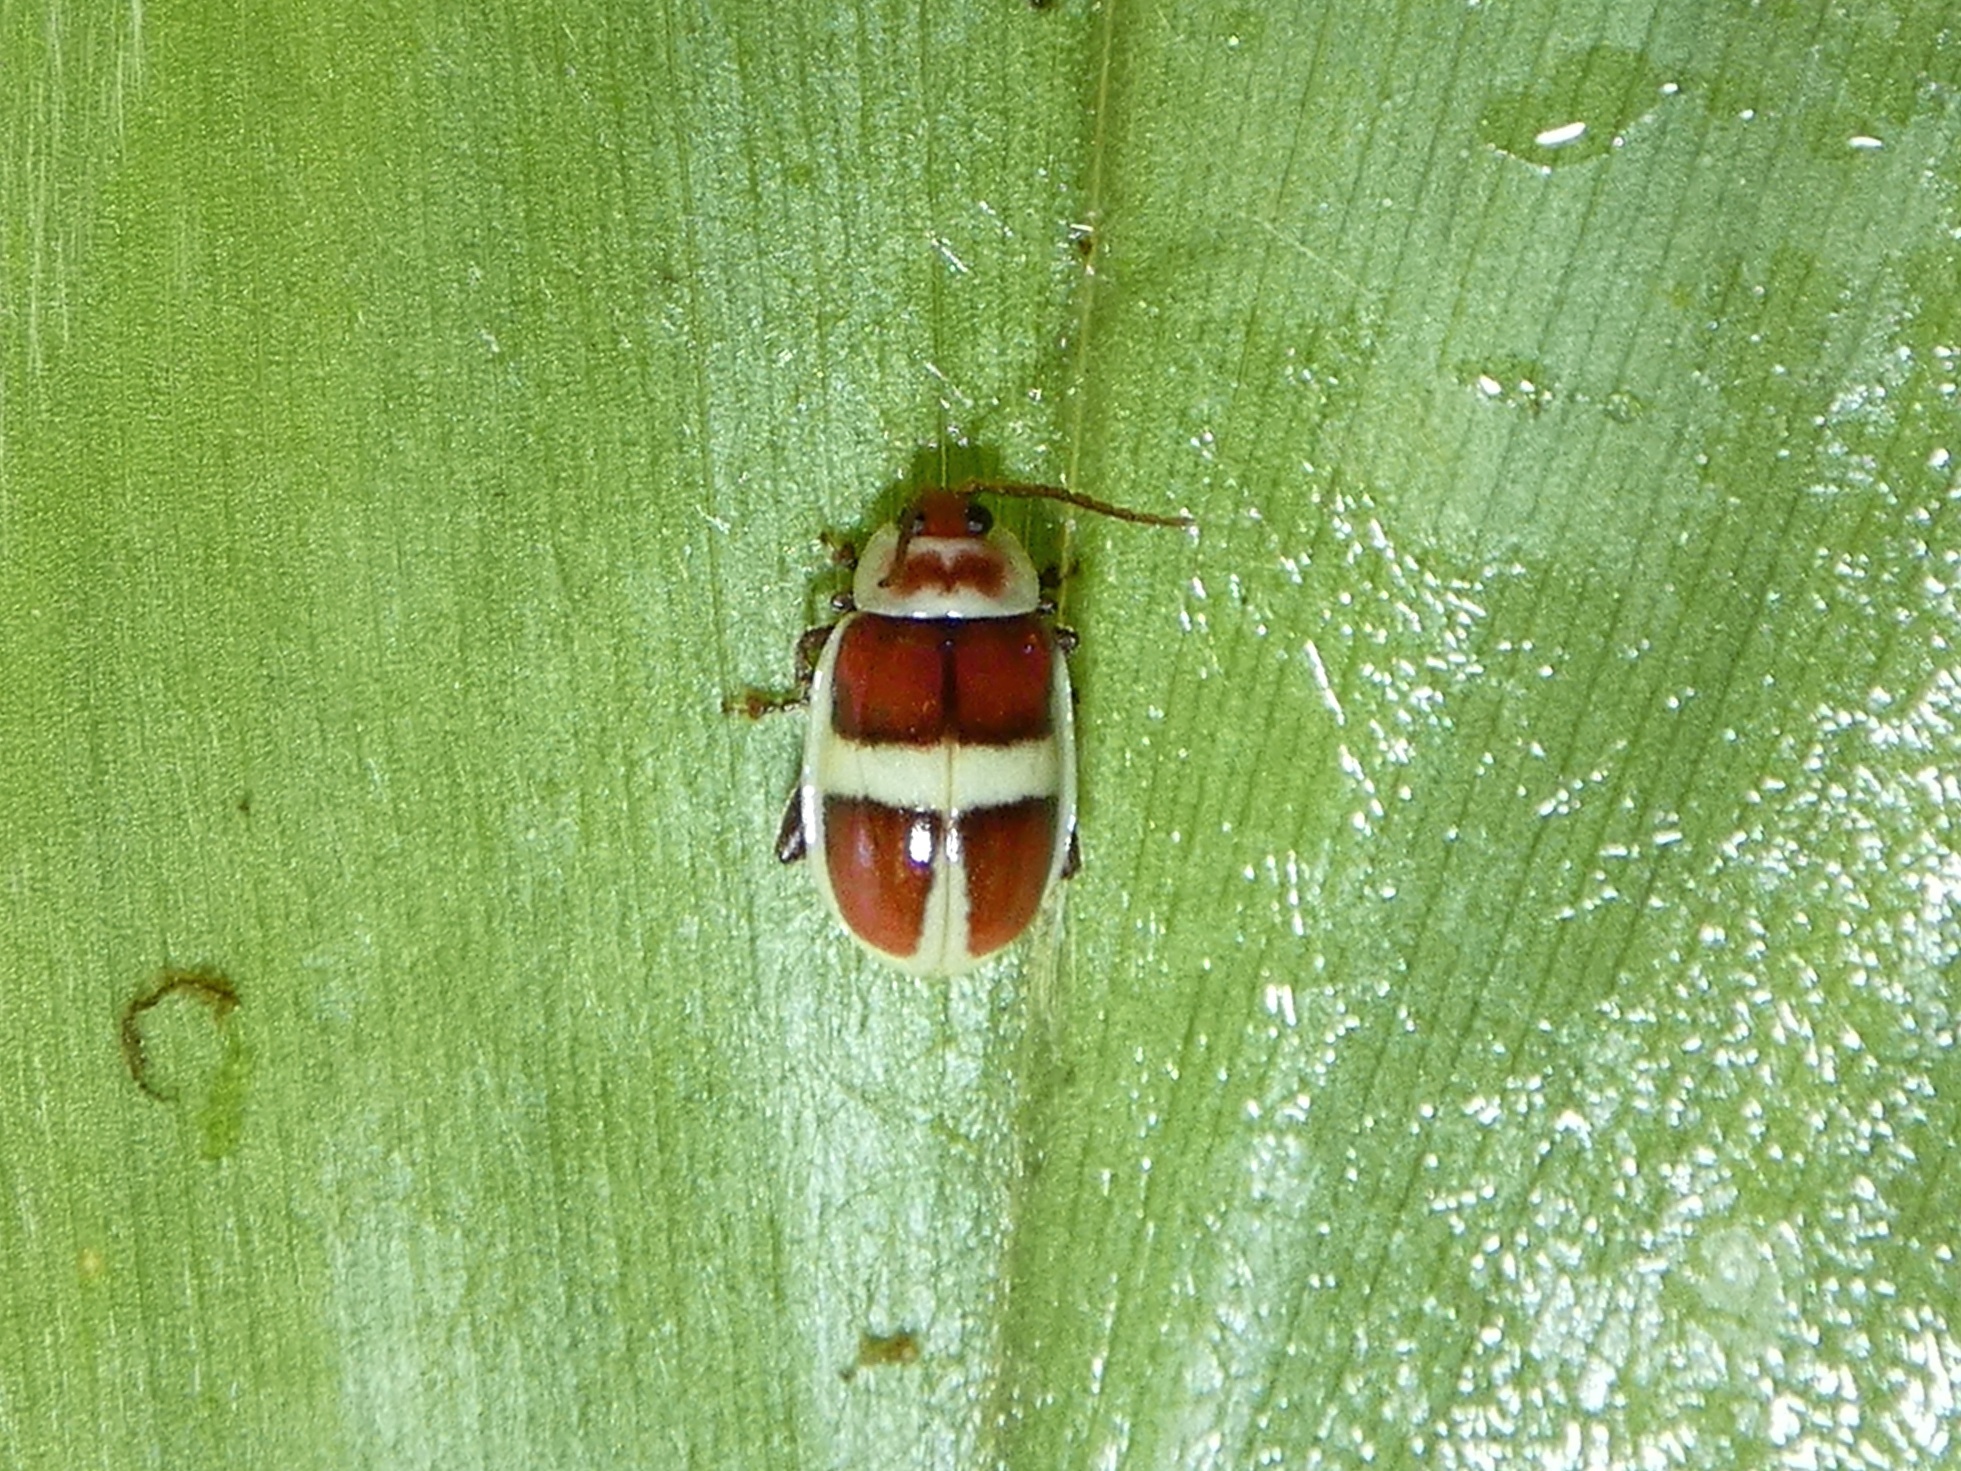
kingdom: Animalia
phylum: Arthropoda
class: Insecta
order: Coleoptera
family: Chrysomelidae
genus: Asphaera
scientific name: Asphaera discicollis
